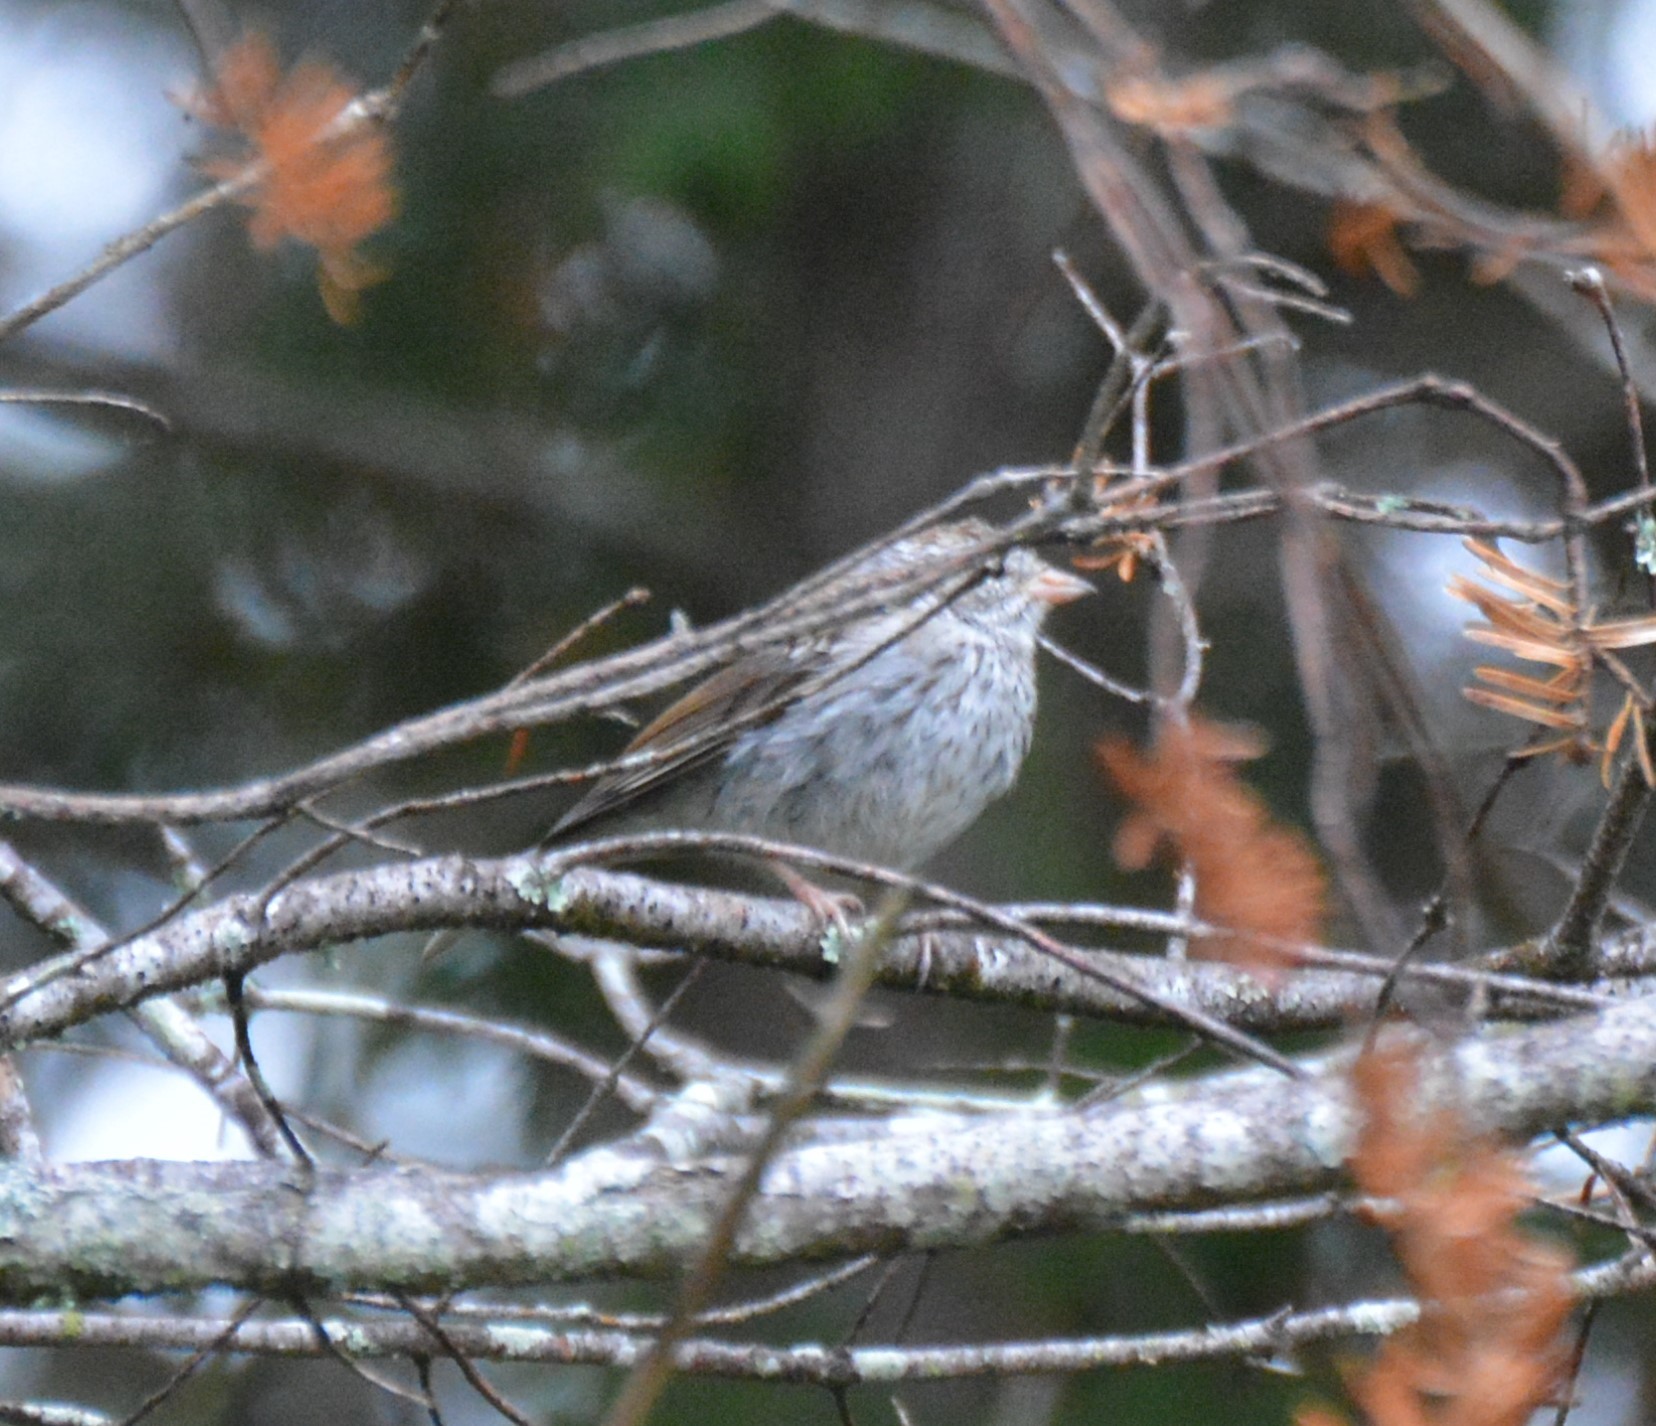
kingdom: Animalia
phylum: Chordata
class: Aves
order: Passeriformes
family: Passerellidae
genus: Spizella
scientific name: Spizella passerina
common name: Chipping sparrow
